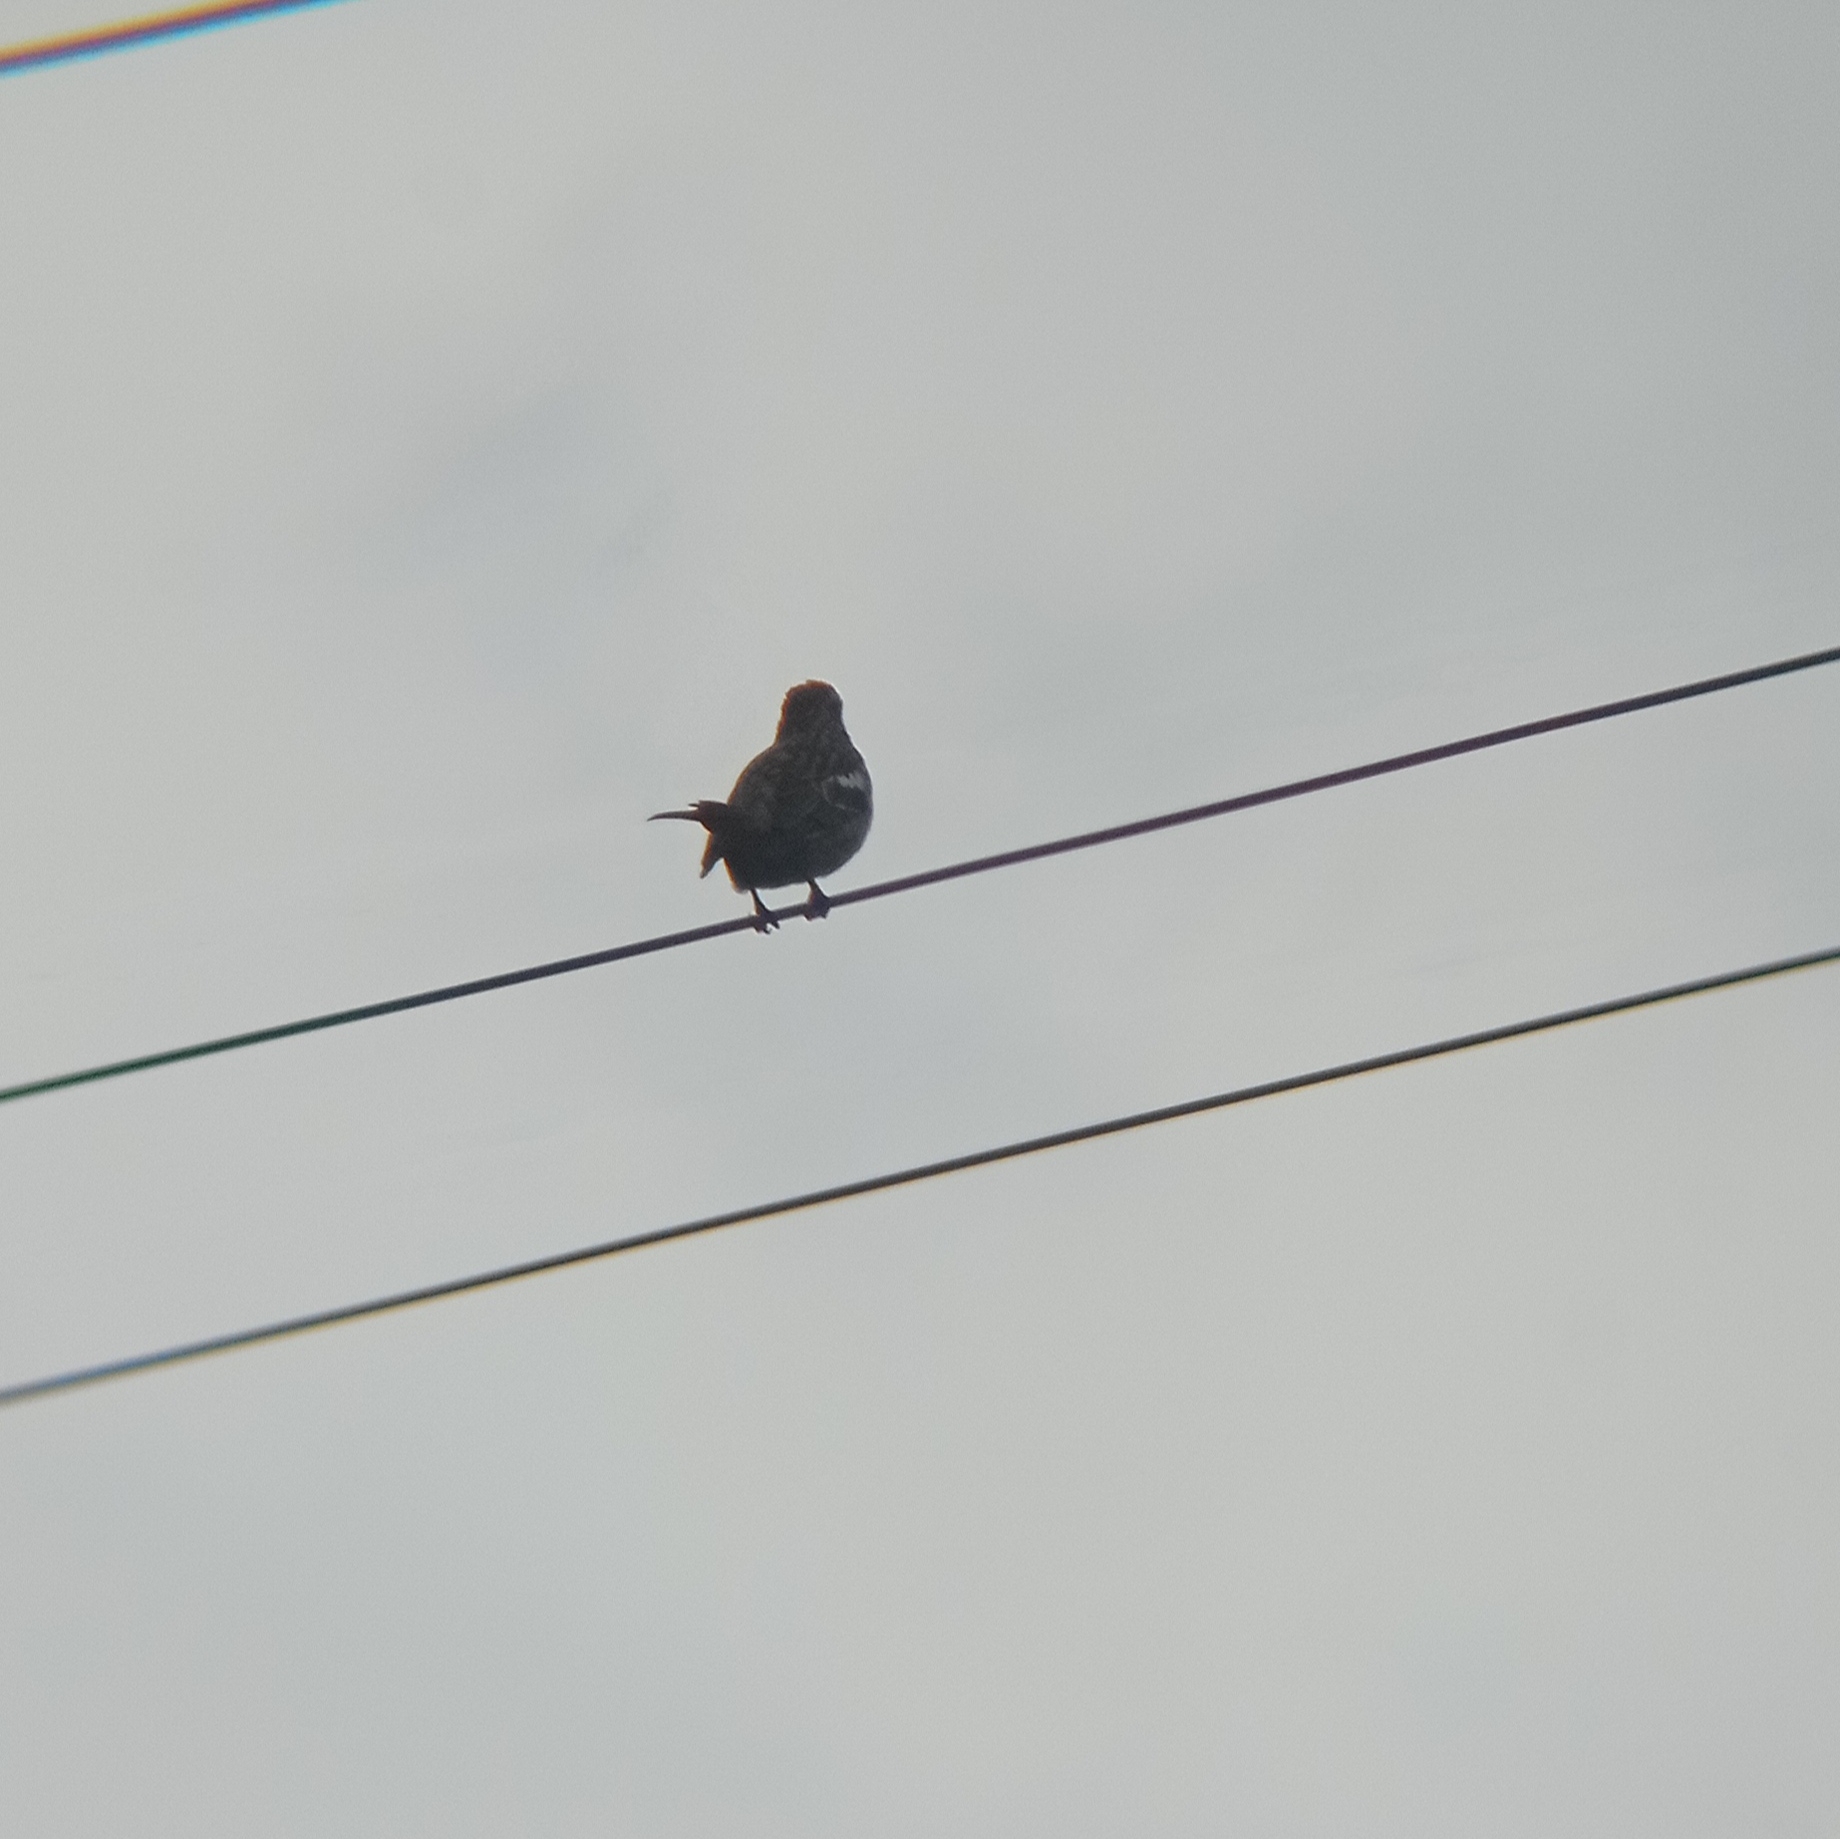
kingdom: Animalia
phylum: Chordata
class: Aves
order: Passeriformes
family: Cotingidae
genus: Phytotoma
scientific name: Phytotoma rara
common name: Rufous-tailed plantcutter
